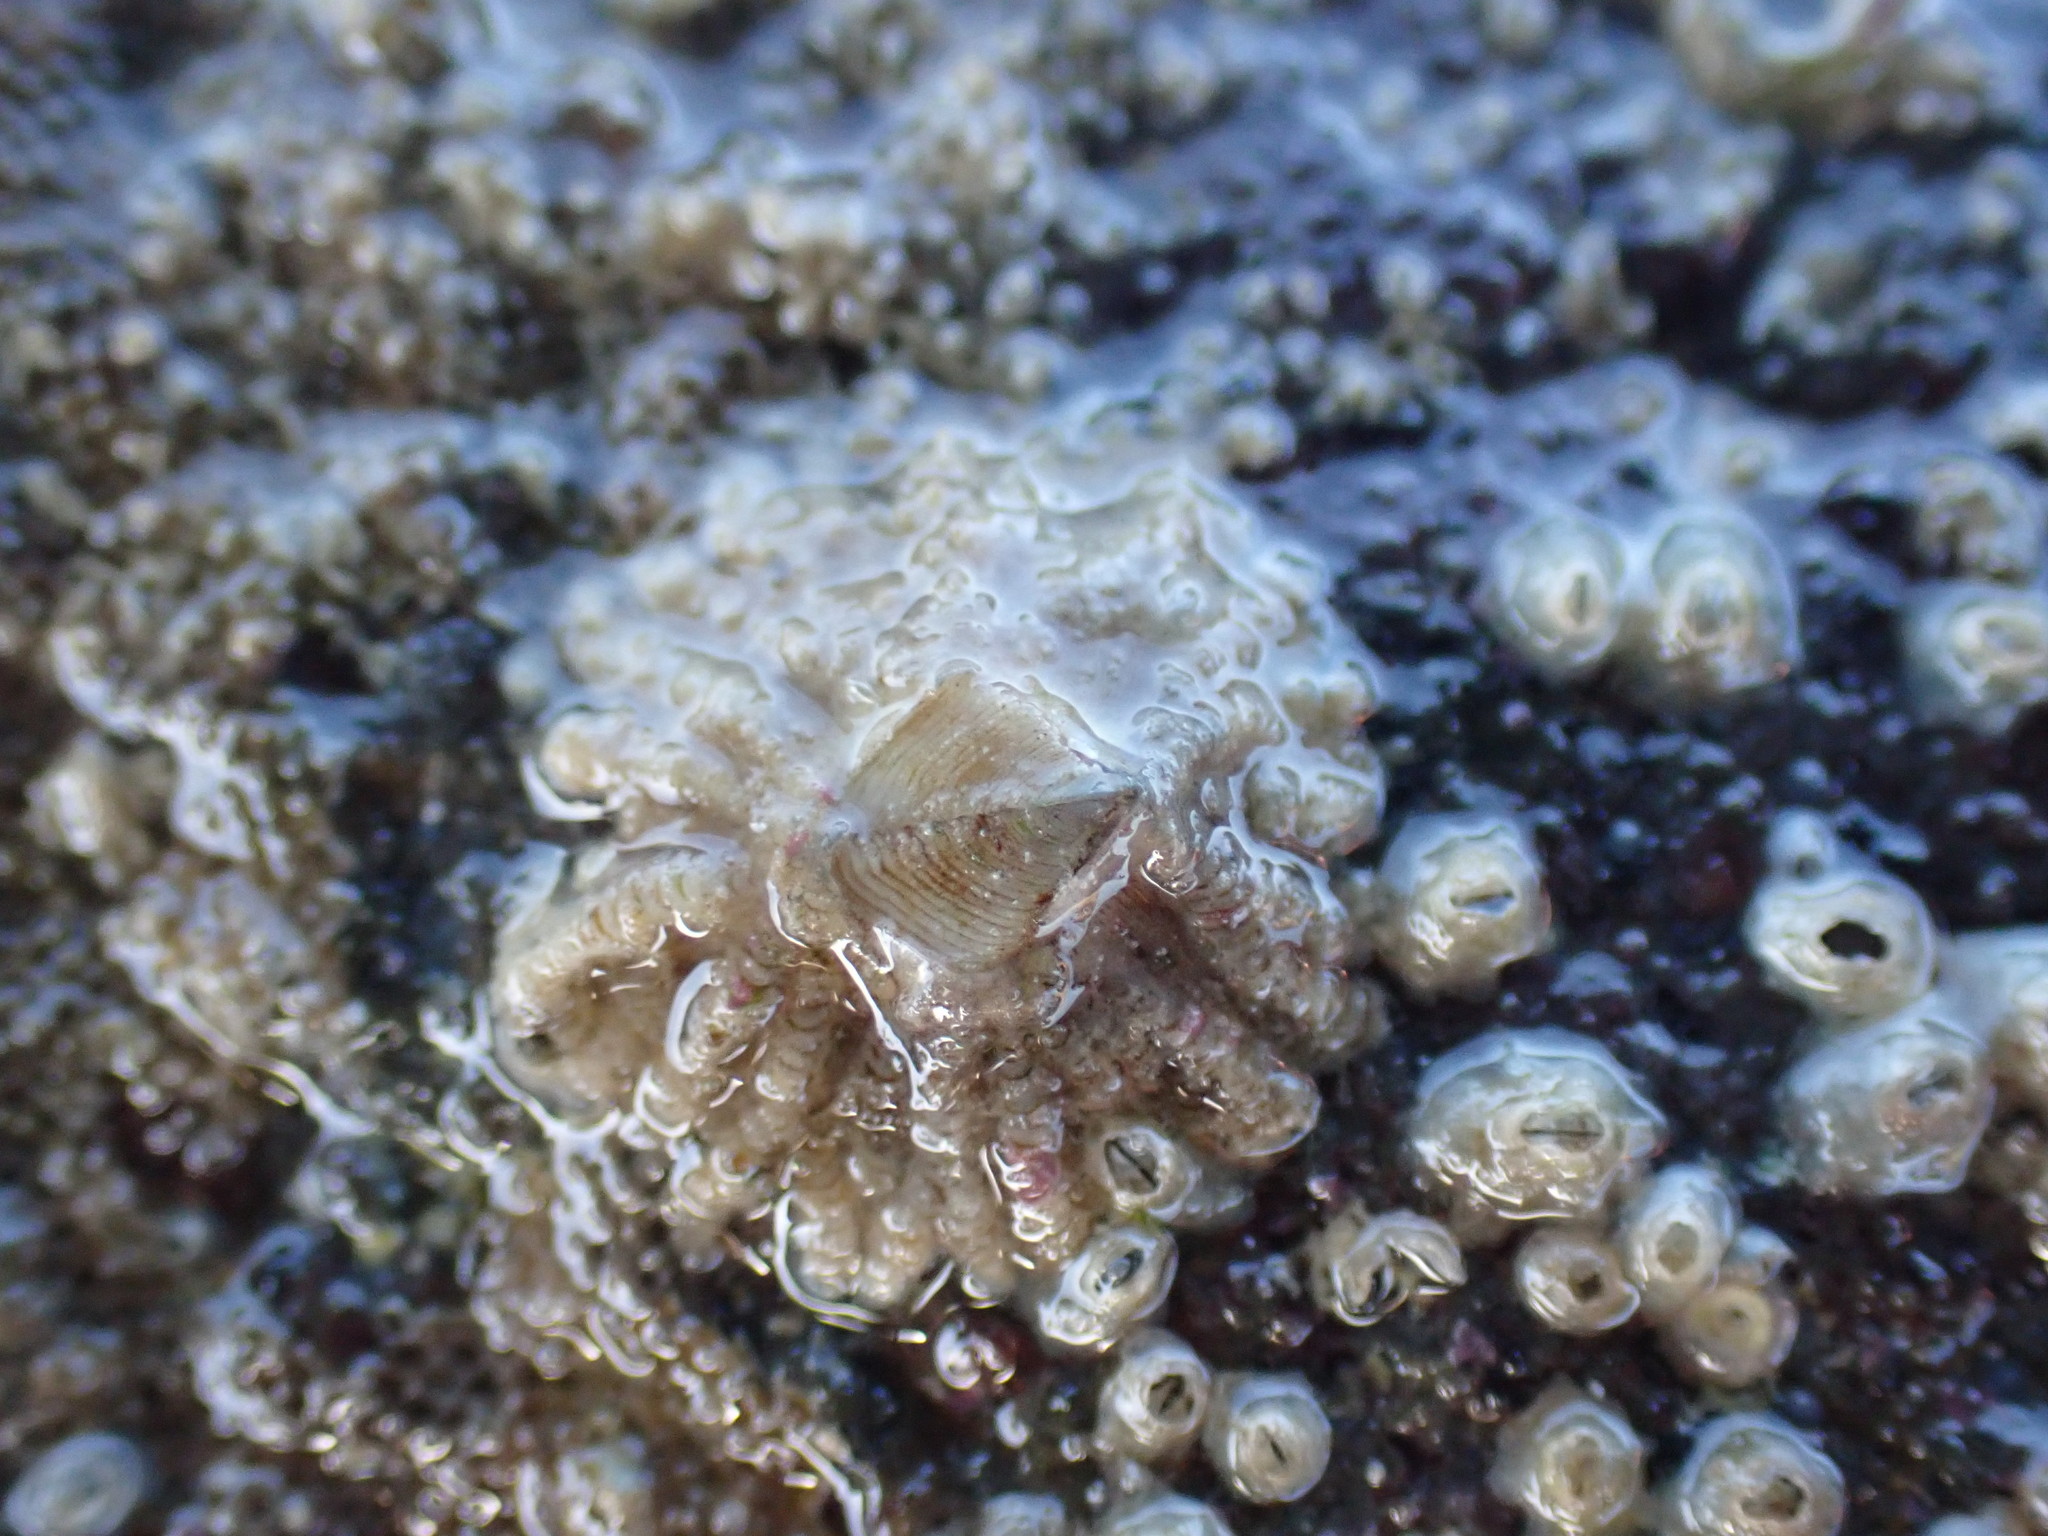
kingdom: Animalia
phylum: Arthropoda
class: Maxillopoda
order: Sessilia
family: Tetraclitidae
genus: Tetraclitella
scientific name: Tetraclitella depressa
